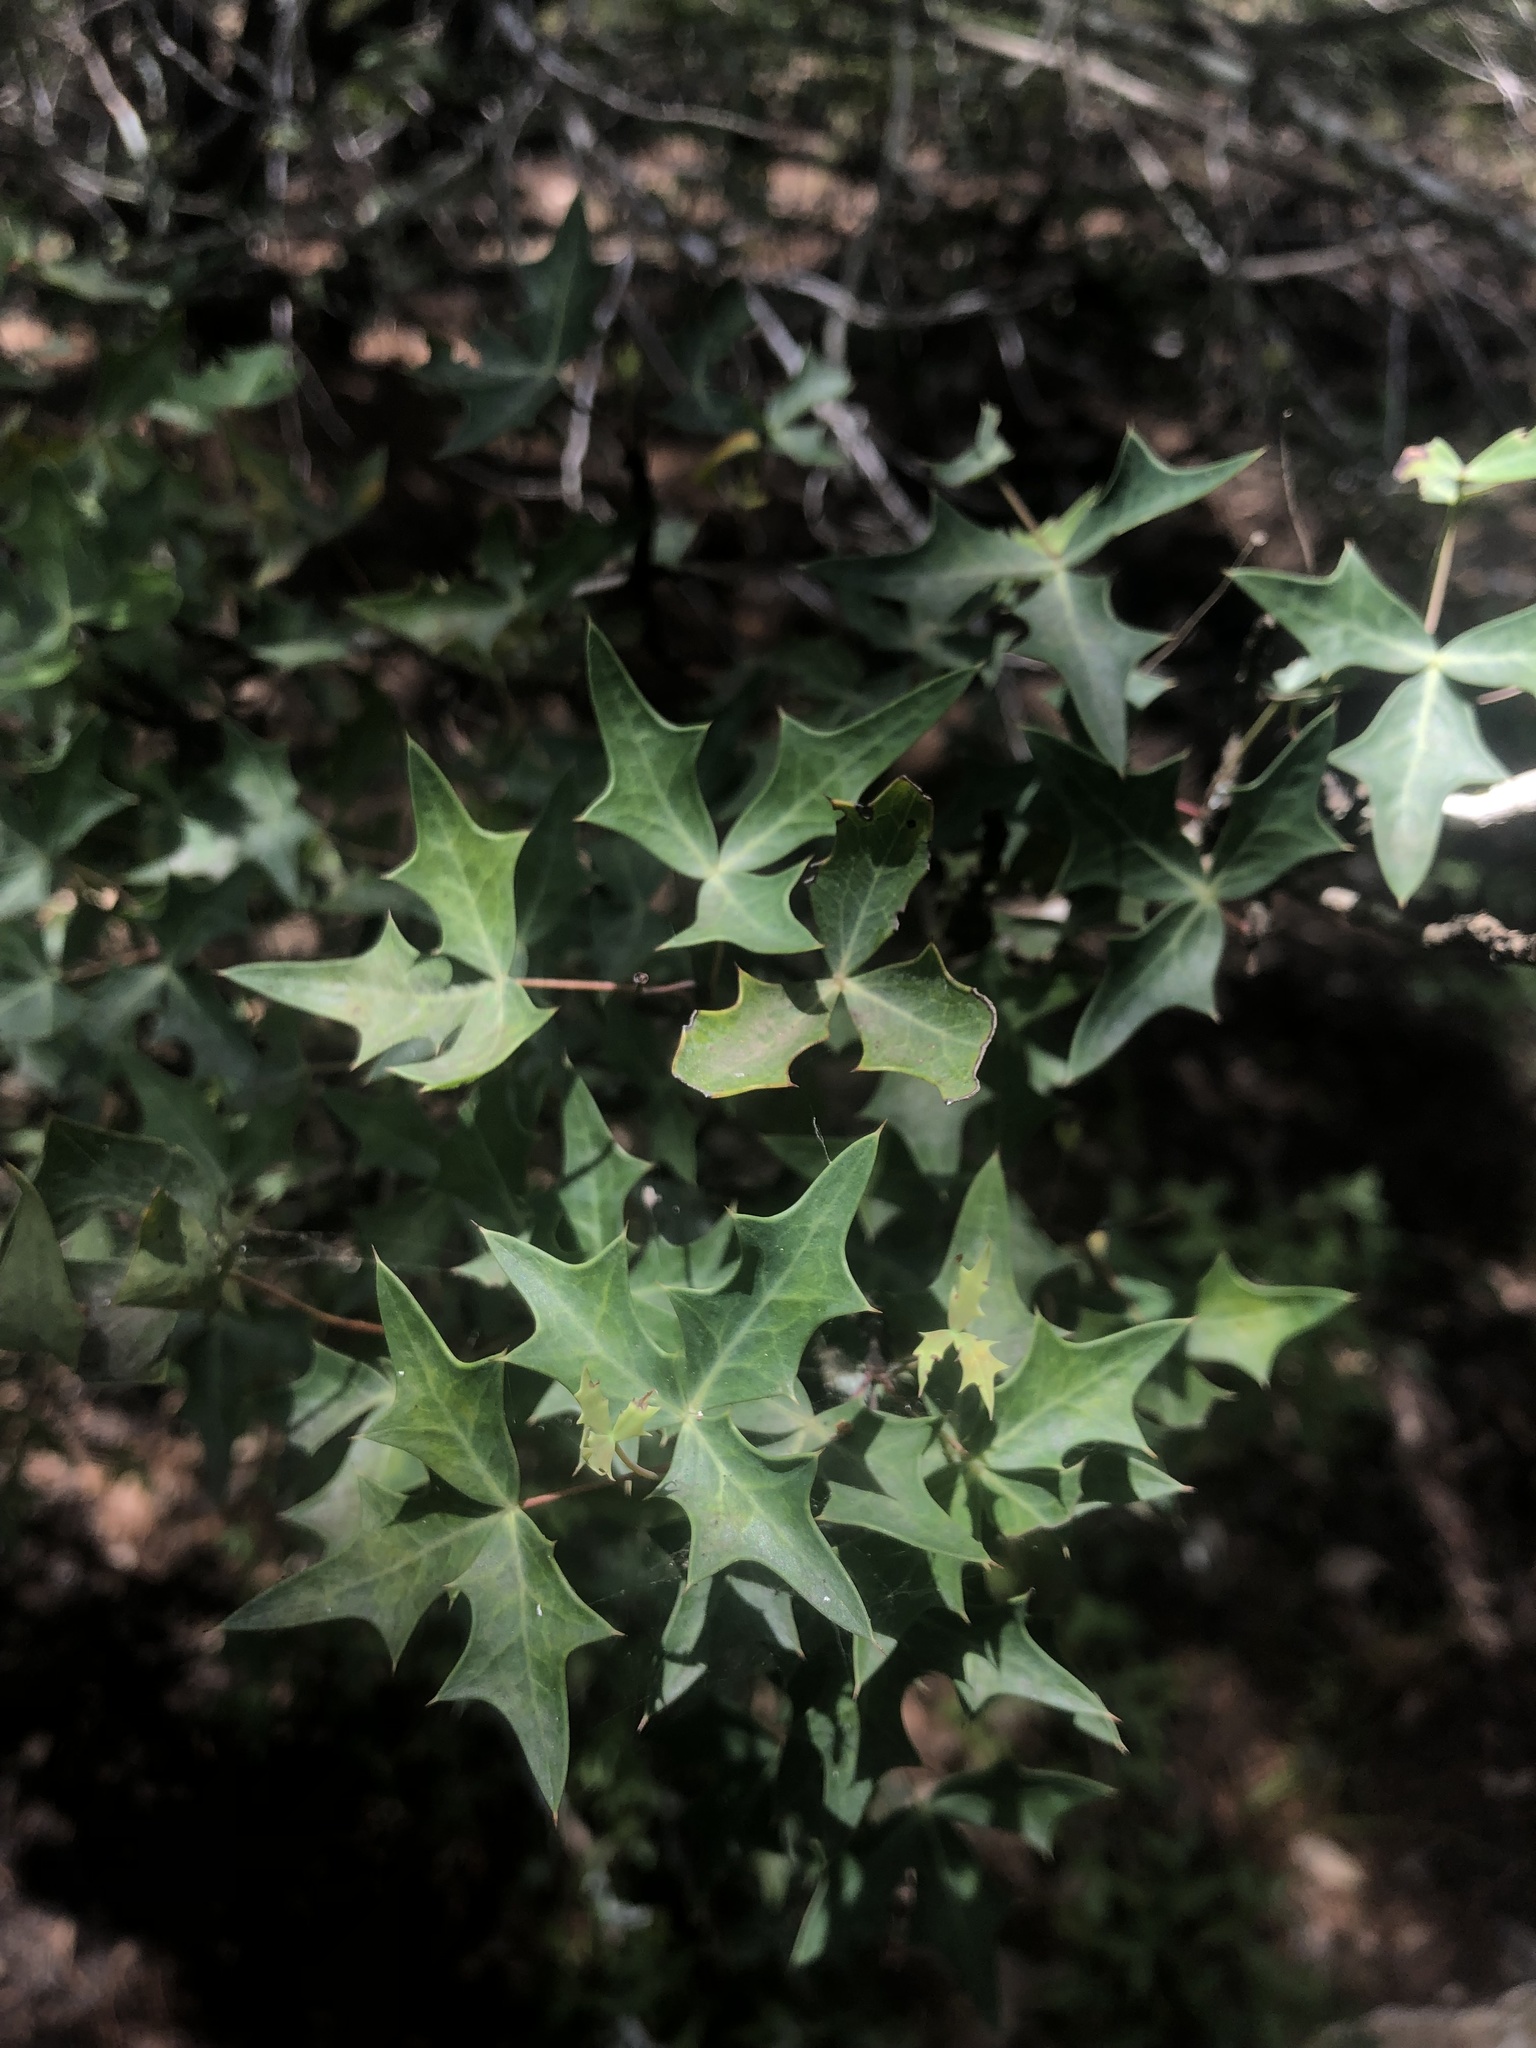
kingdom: Plantae
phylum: Tracheophyta
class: Magnoliopsida
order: Ranunculales
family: Berberidaceae
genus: Alloberberis
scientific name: Alloberberis trifoliolata
